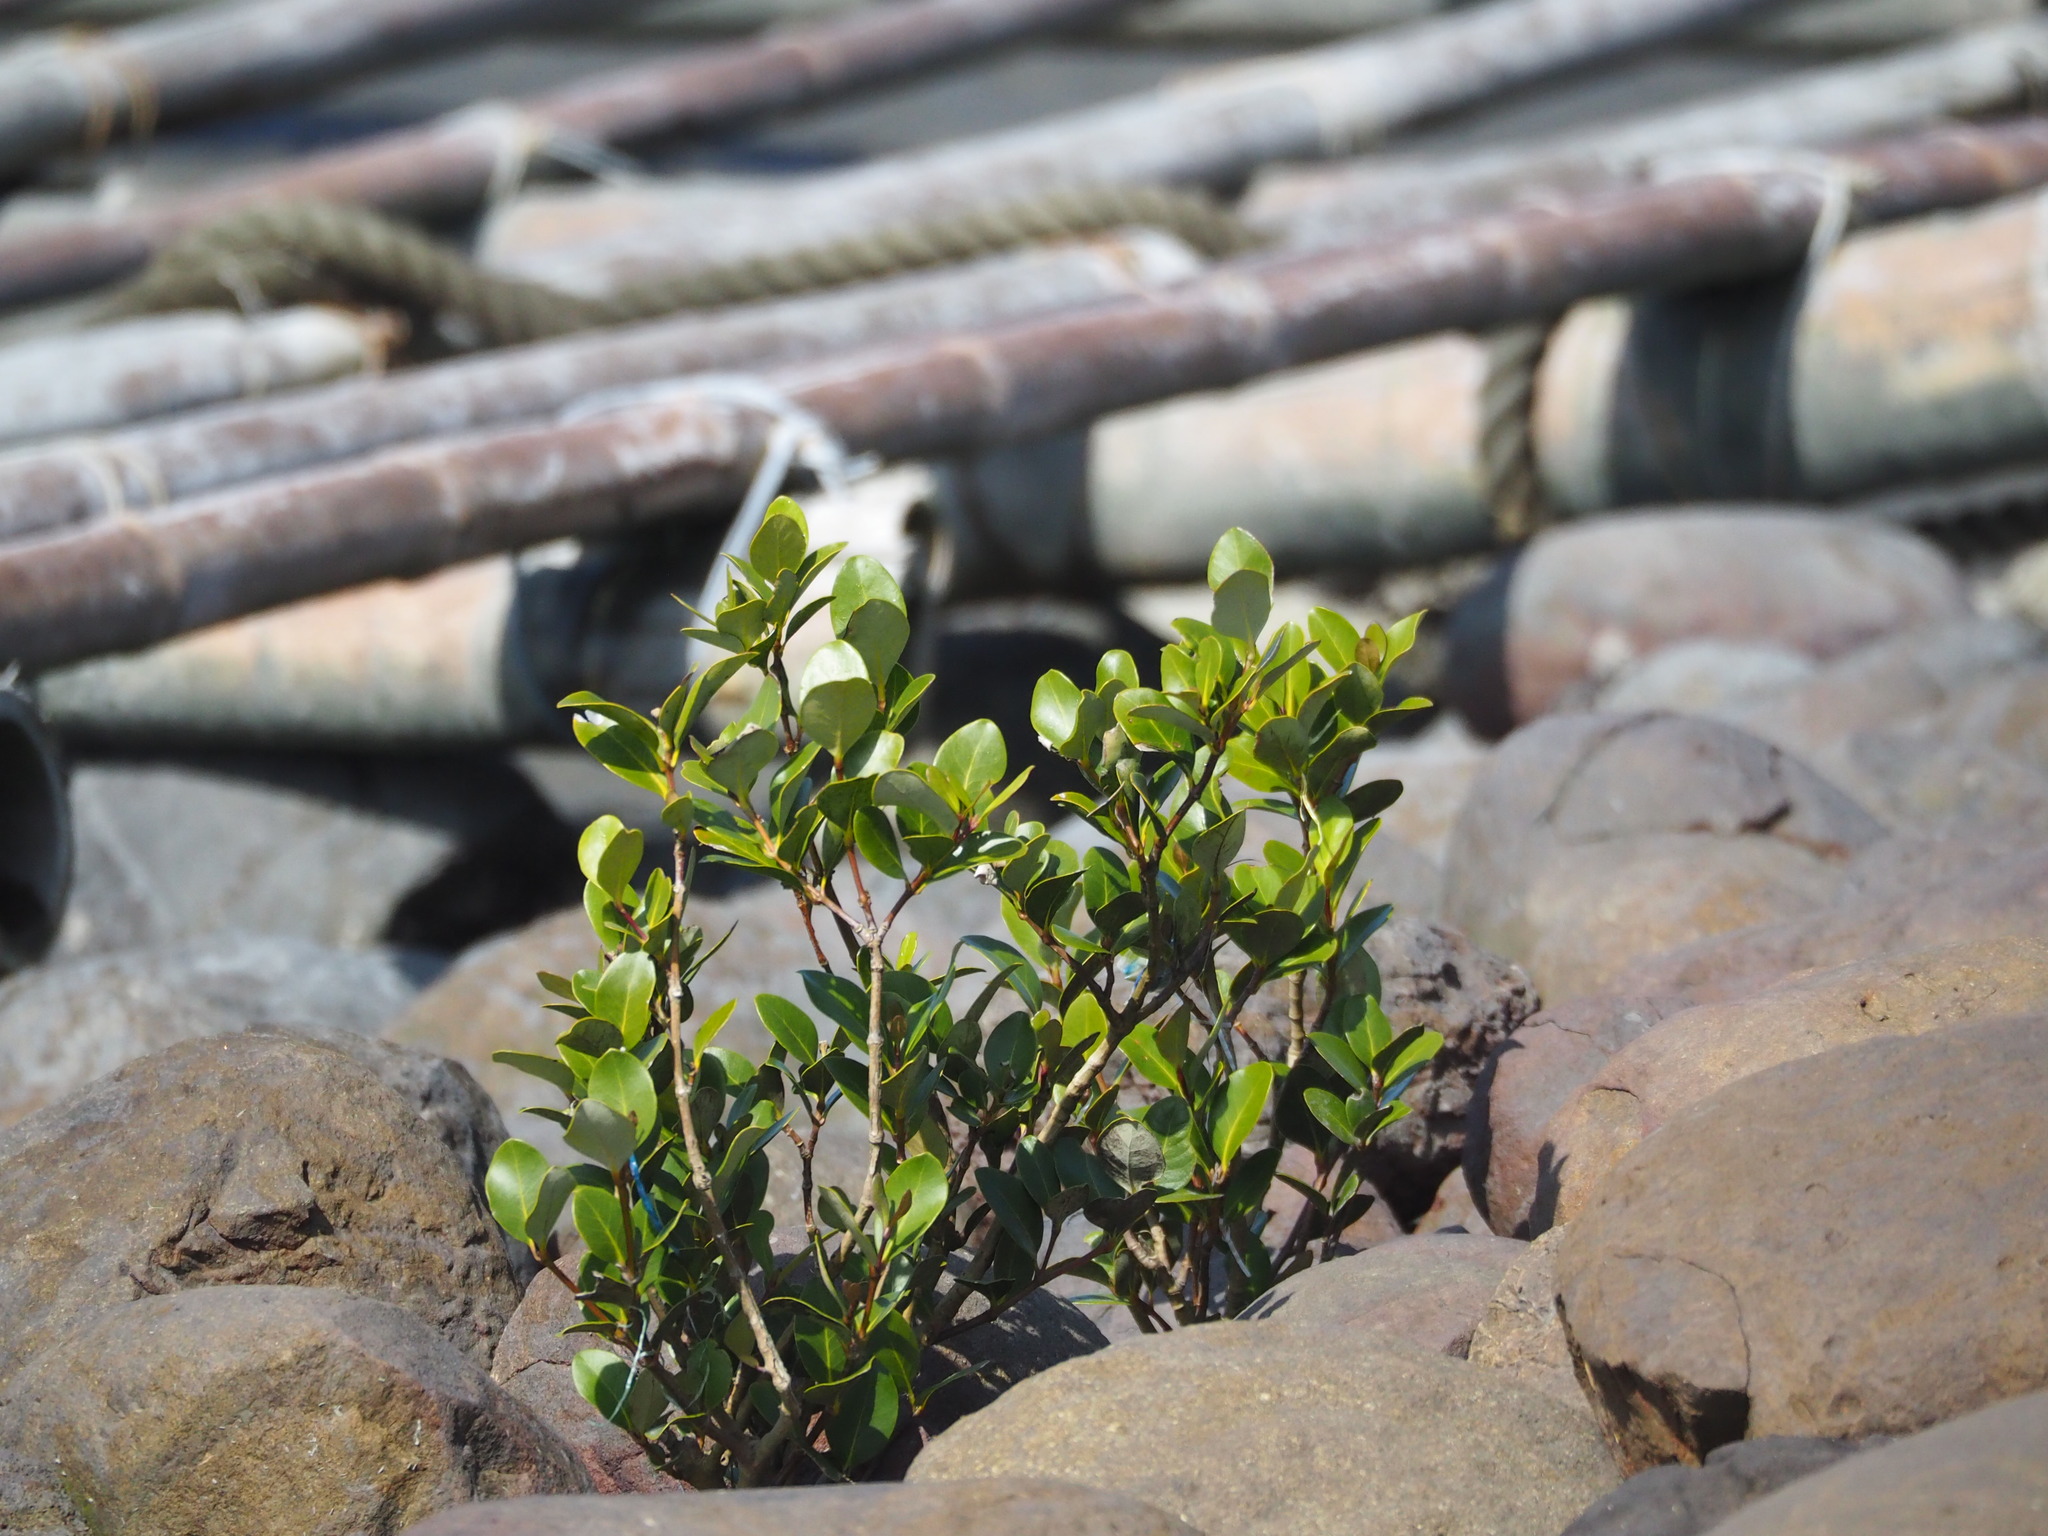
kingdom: Plantae
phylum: Tracheophyta
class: Magnoliopsida
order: Lamiales
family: Acanthaceae
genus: Avicennia
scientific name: Avicennia marina
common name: Gray mangrove
